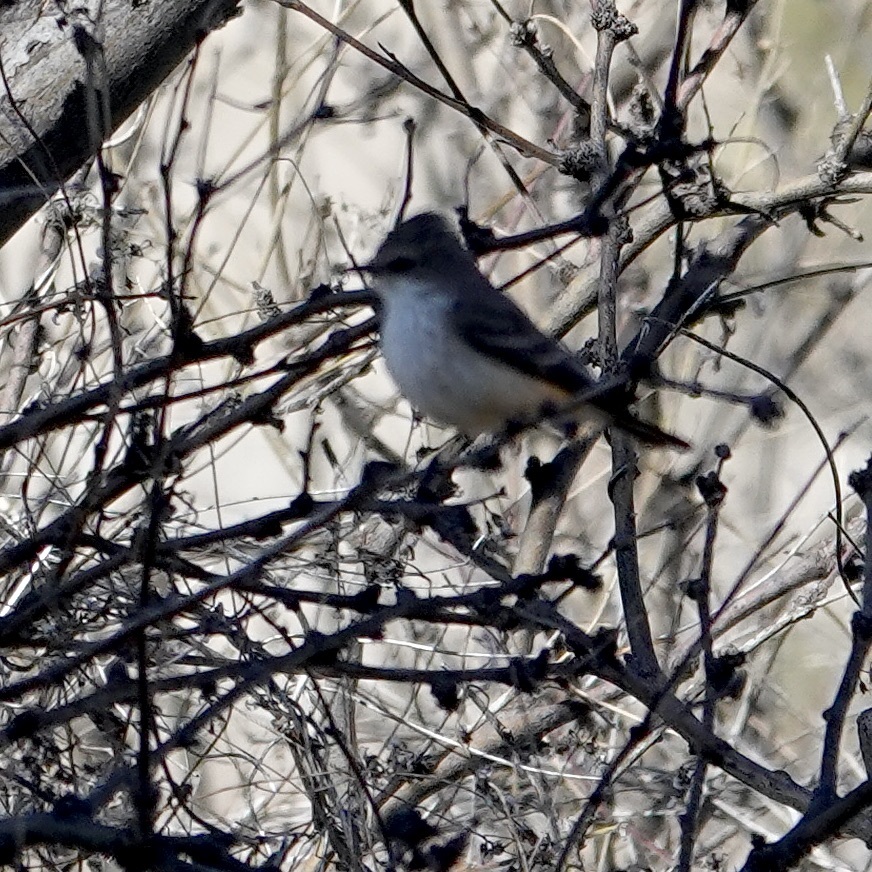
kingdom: Animalia
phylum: Chordata
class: Aves
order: Passeriformes
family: Tyrannidae
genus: Pyrocephalus
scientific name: Pyrocephalus rubinus
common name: Vermilion flycatcher
